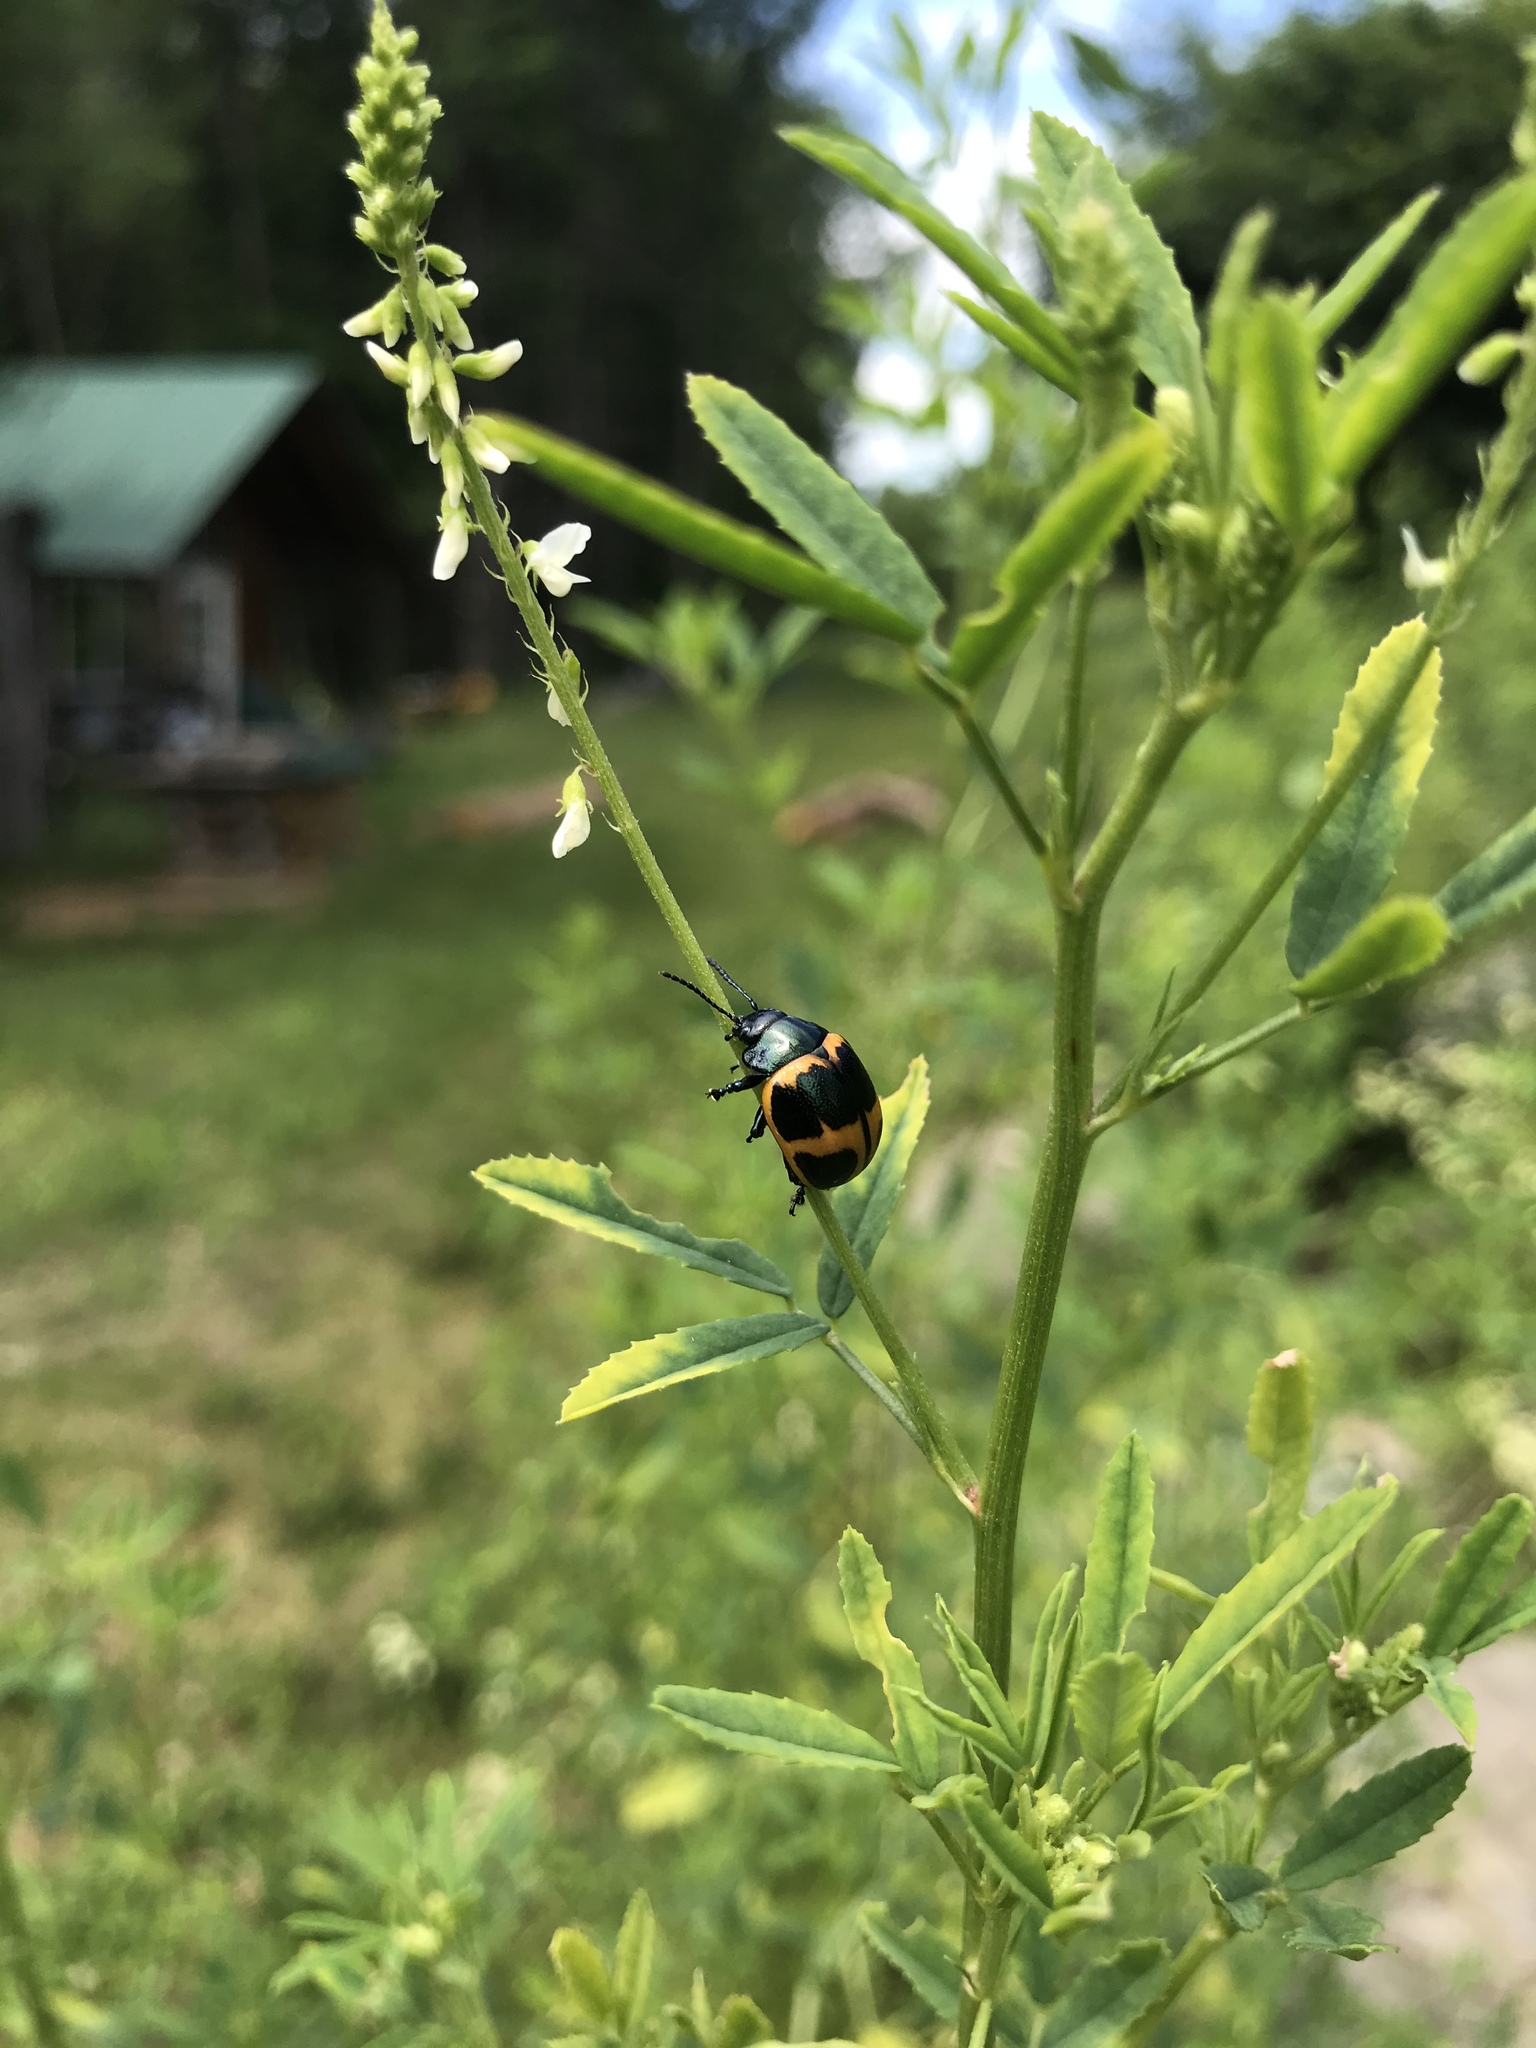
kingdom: Animalia
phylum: Arthropoda
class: Insecta
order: Coleoptera
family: Chrysomelidae
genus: Labidomera
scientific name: Labidomera clivicollis
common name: Swamp milkweed leaf beetle
